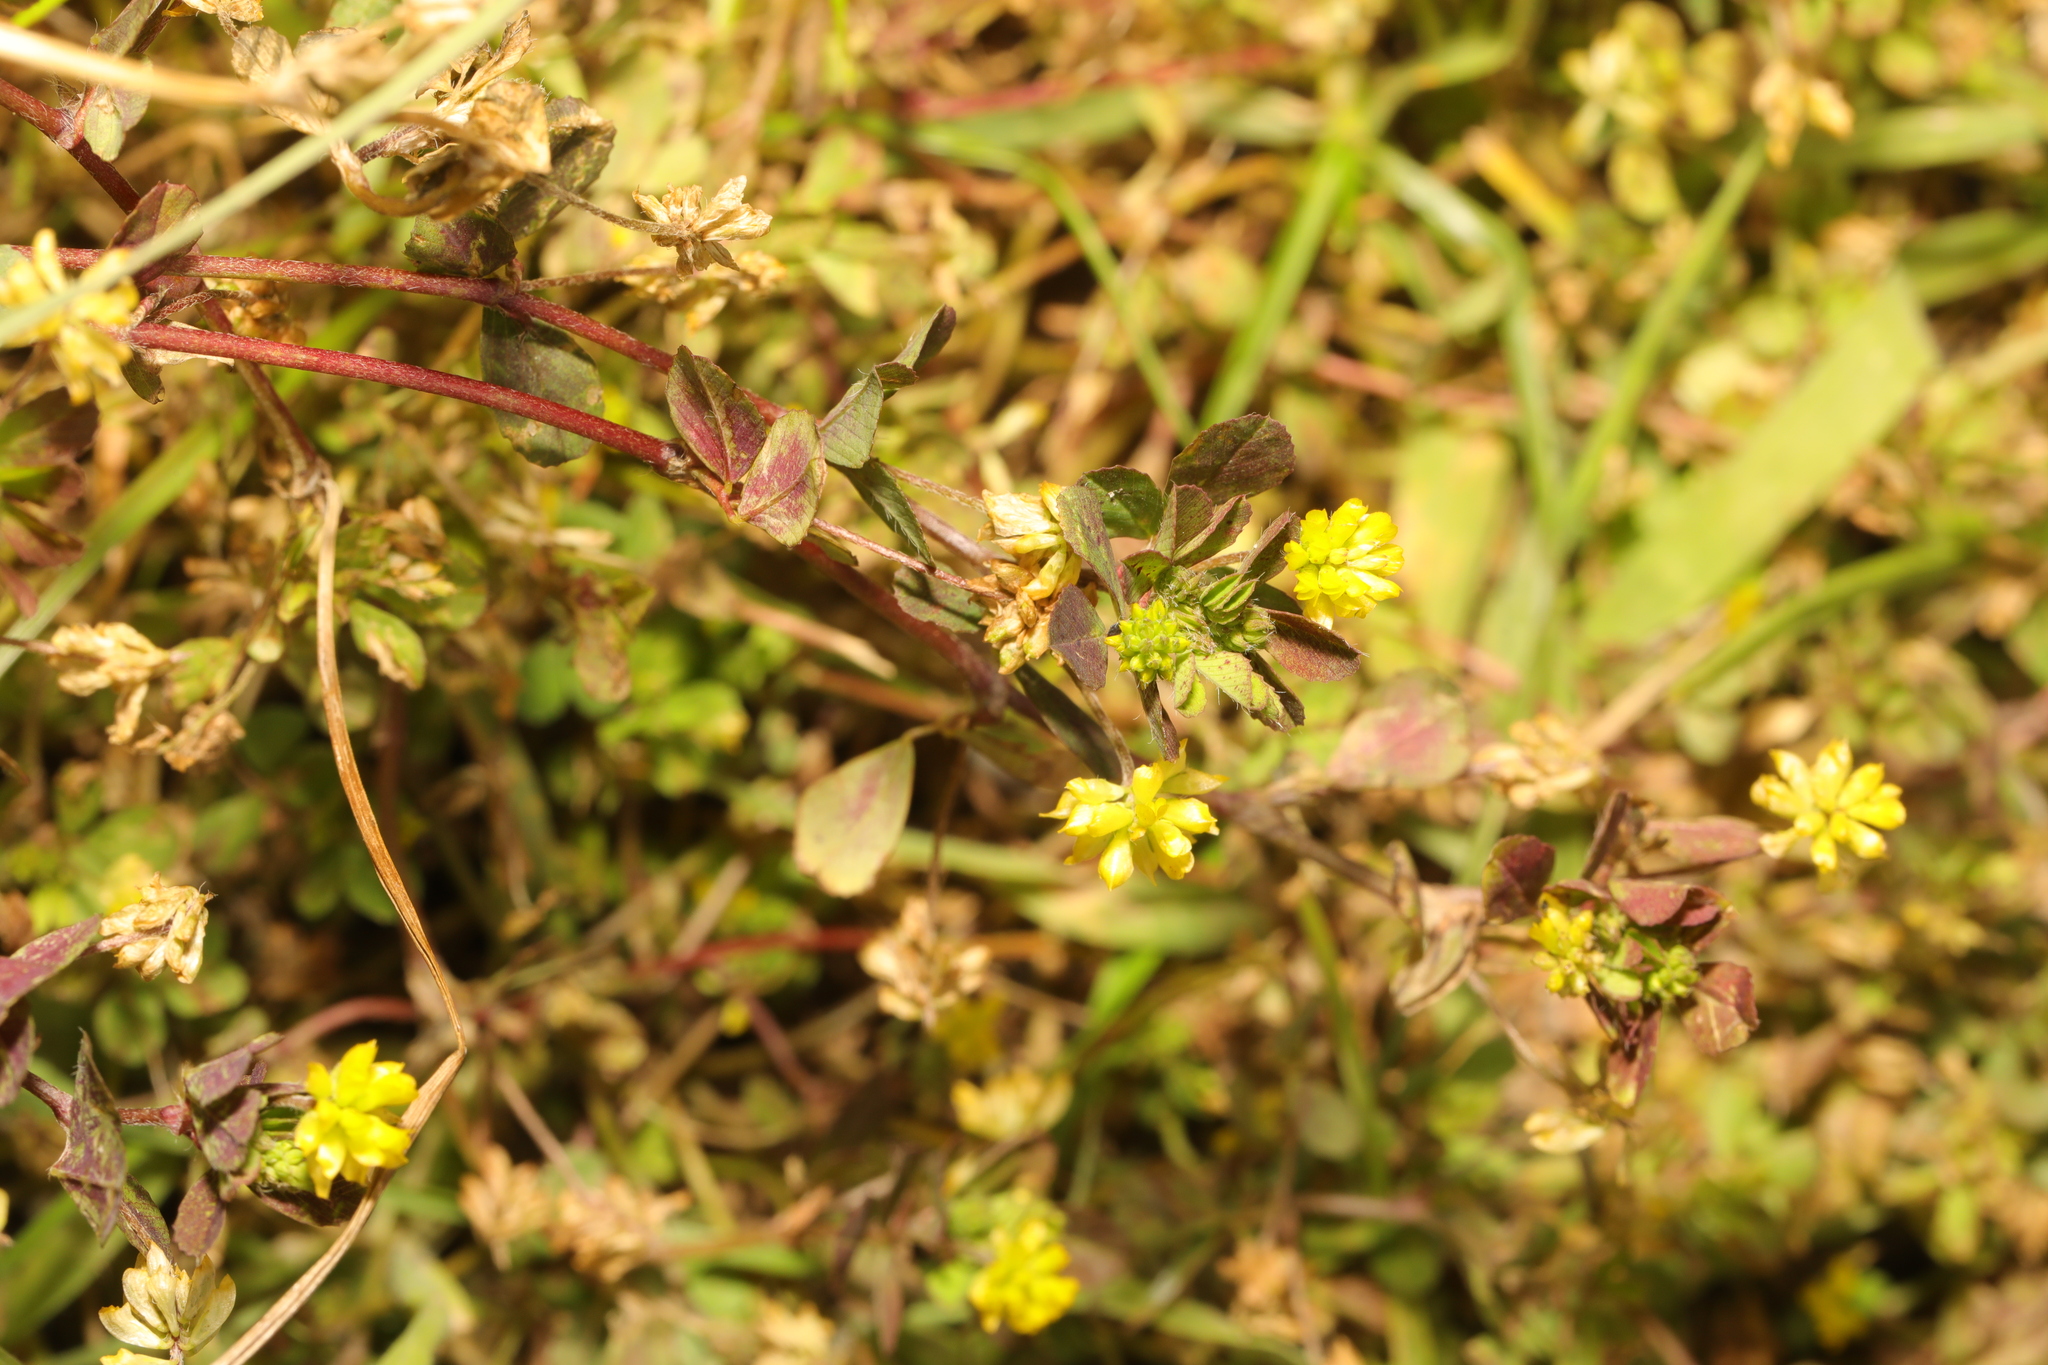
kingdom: Plantae
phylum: Tracheophyta
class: Magnoliopsida
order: Fabales
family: Fabaceae
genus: Trifolium
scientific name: Trifolium dubium
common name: Suckling clover
